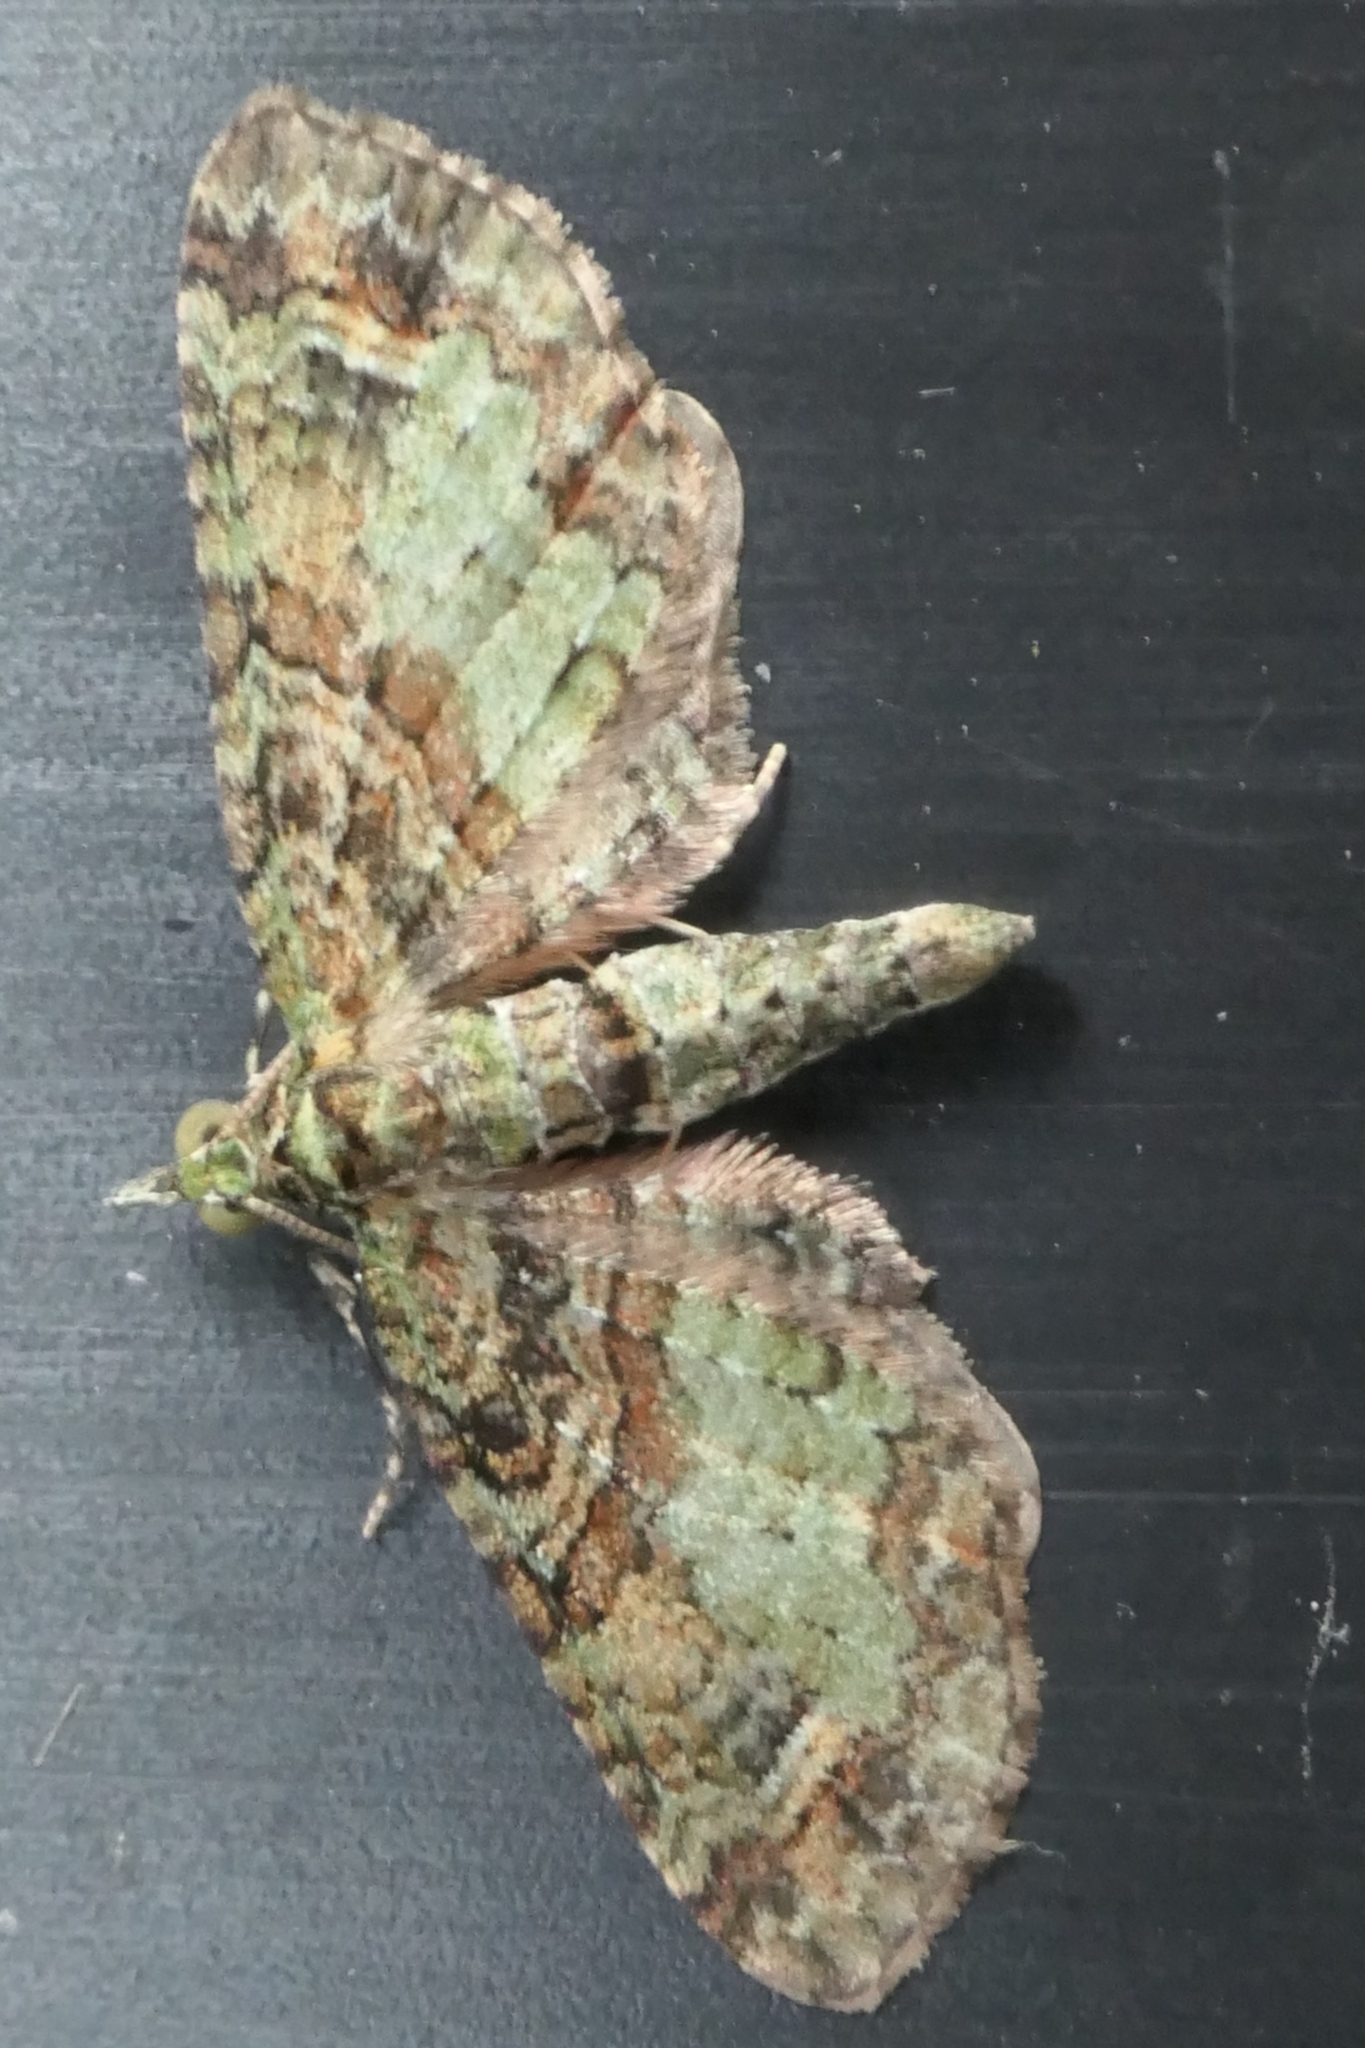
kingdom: Animalia
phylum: Arthropoda
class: Insecta
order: Lepidoptera
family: Geometridae
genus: Idaea
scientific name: Idaea mutanda
